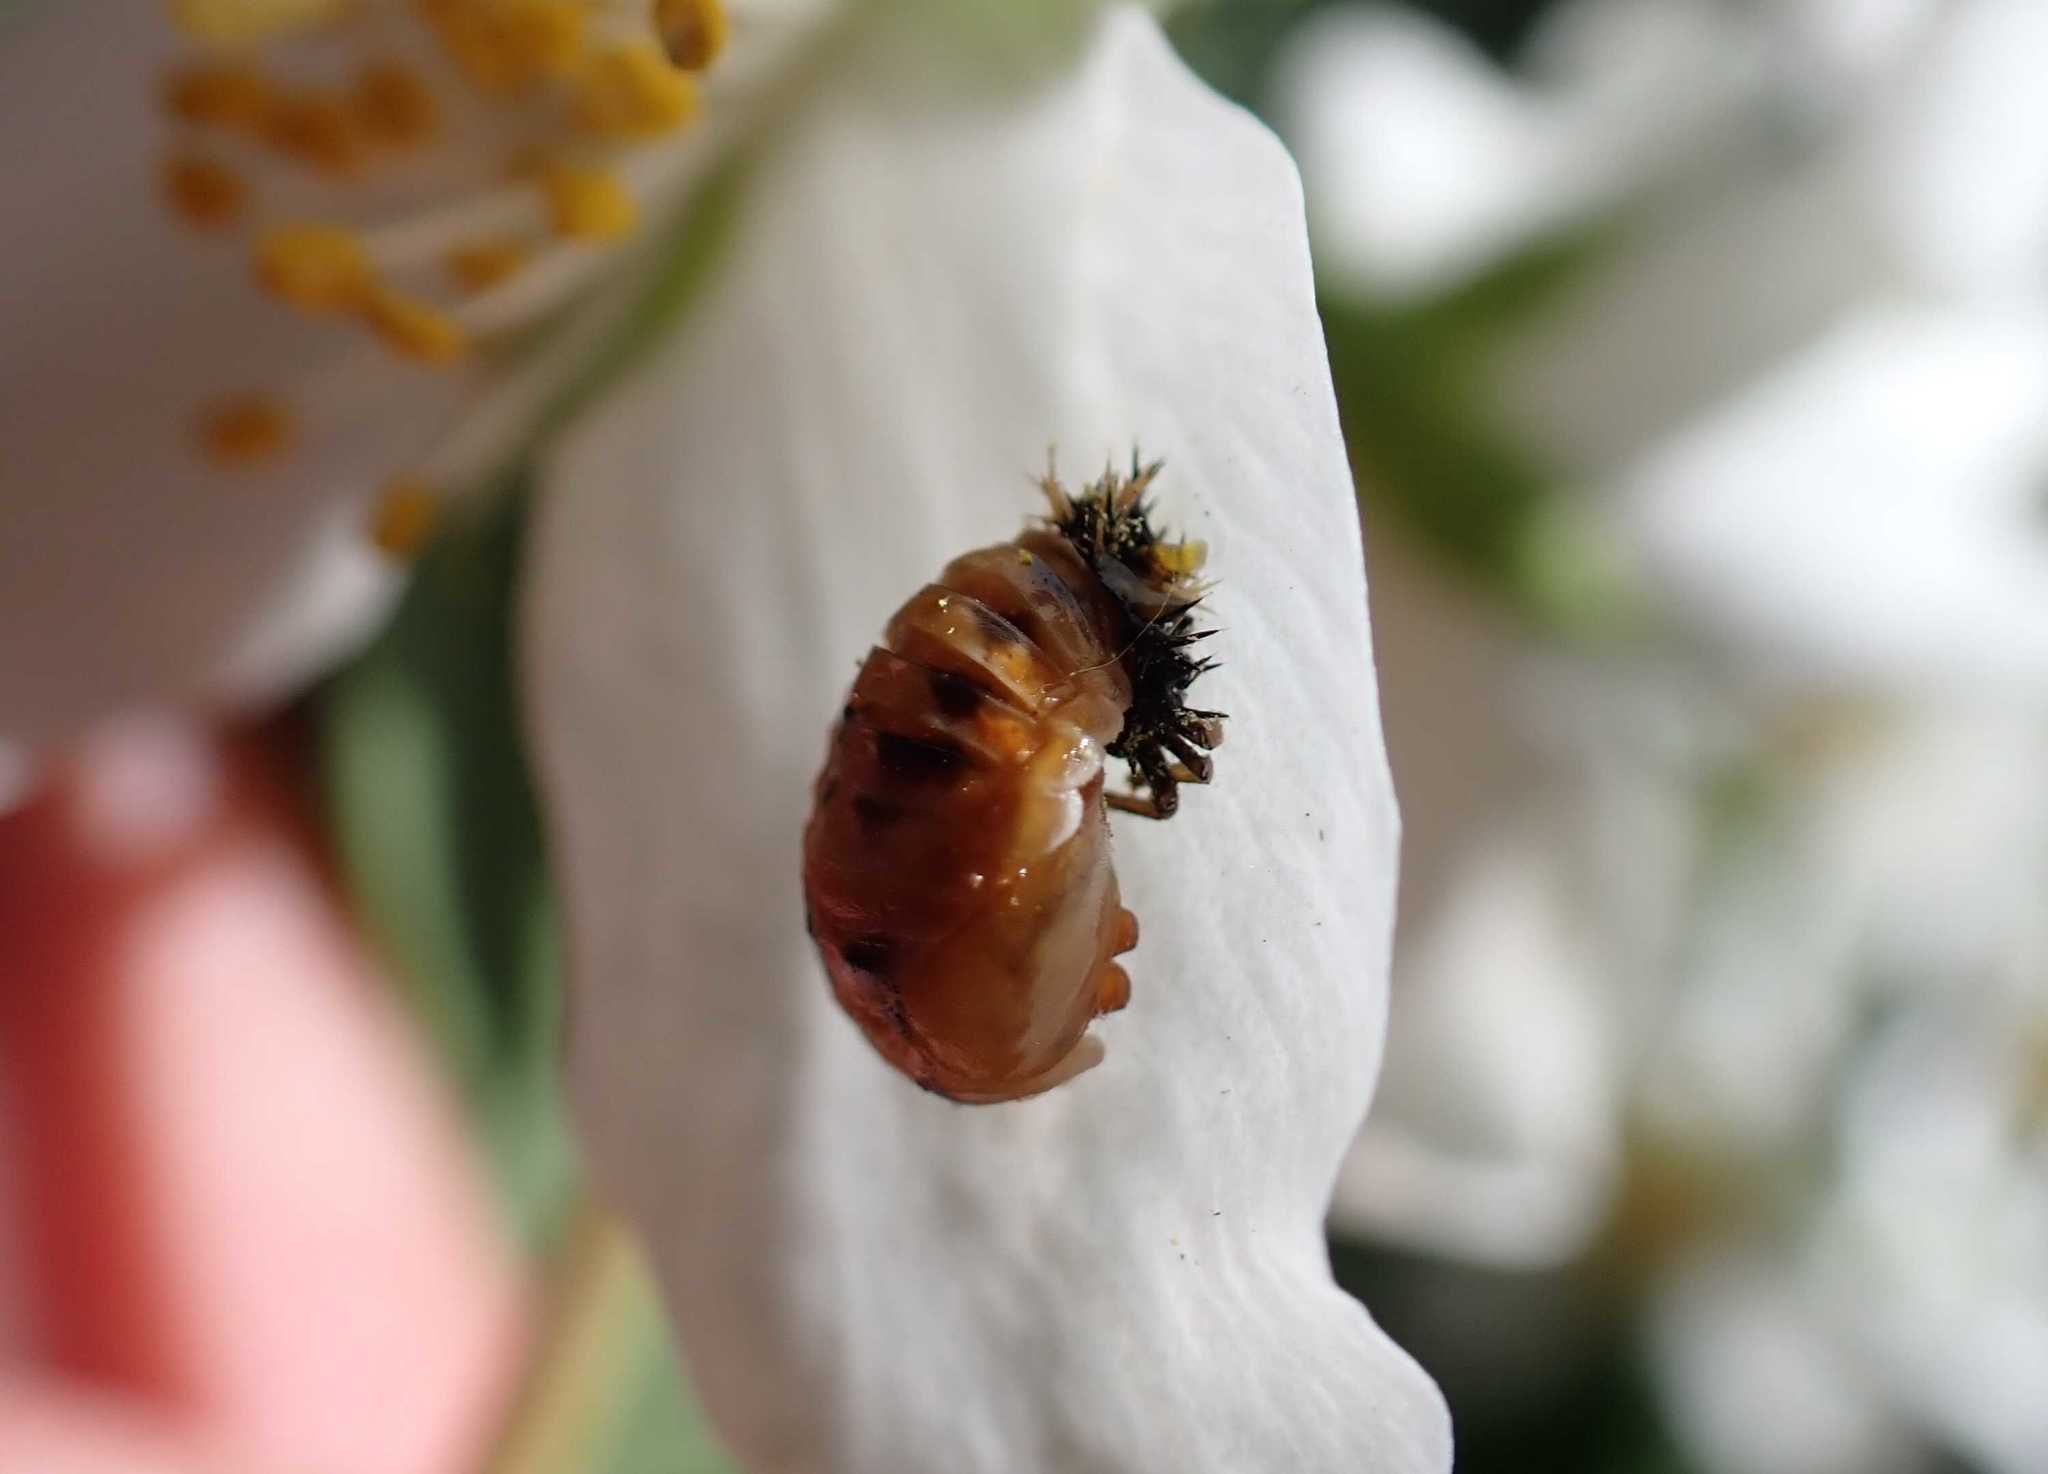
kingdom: Animalia
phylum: Arthropoda
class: Insecta
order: Coleoptera
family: Coccinellidae
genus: Harmonia
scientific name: Harmonia axyridis
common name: Harlequin ladybird
